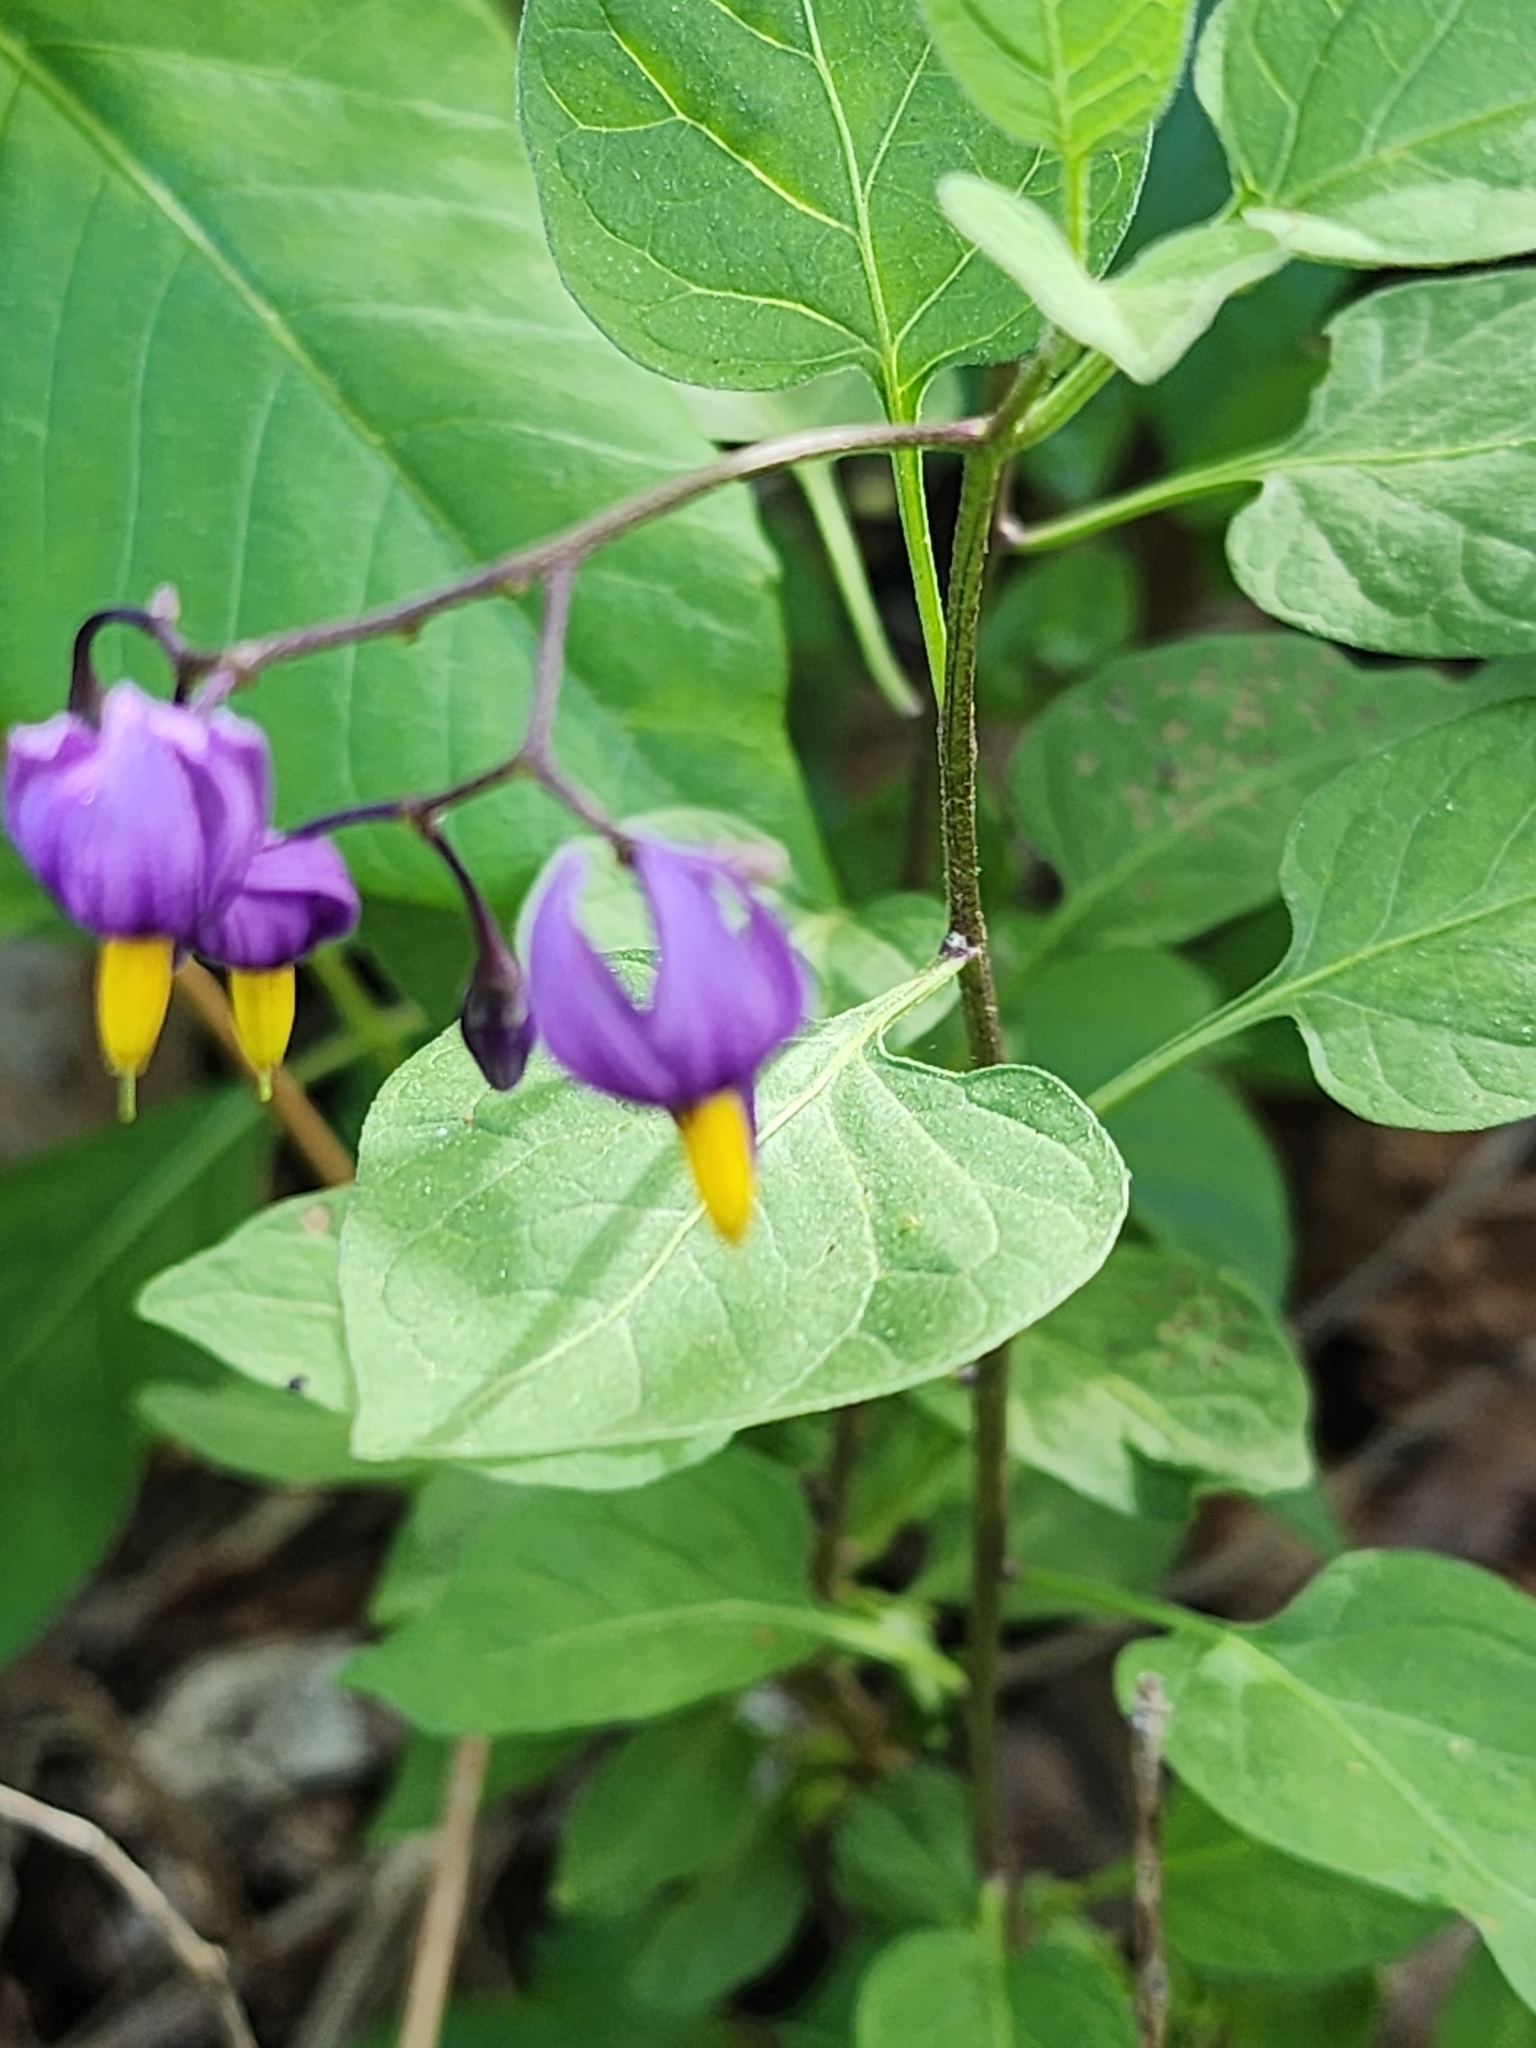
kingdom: Plantae
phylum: Tracheophyta
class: Magnoliopsida
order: Solanales
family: Solanaceae
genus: Solanum
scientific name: Solanum dulcamara
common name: Climbing nightshade
